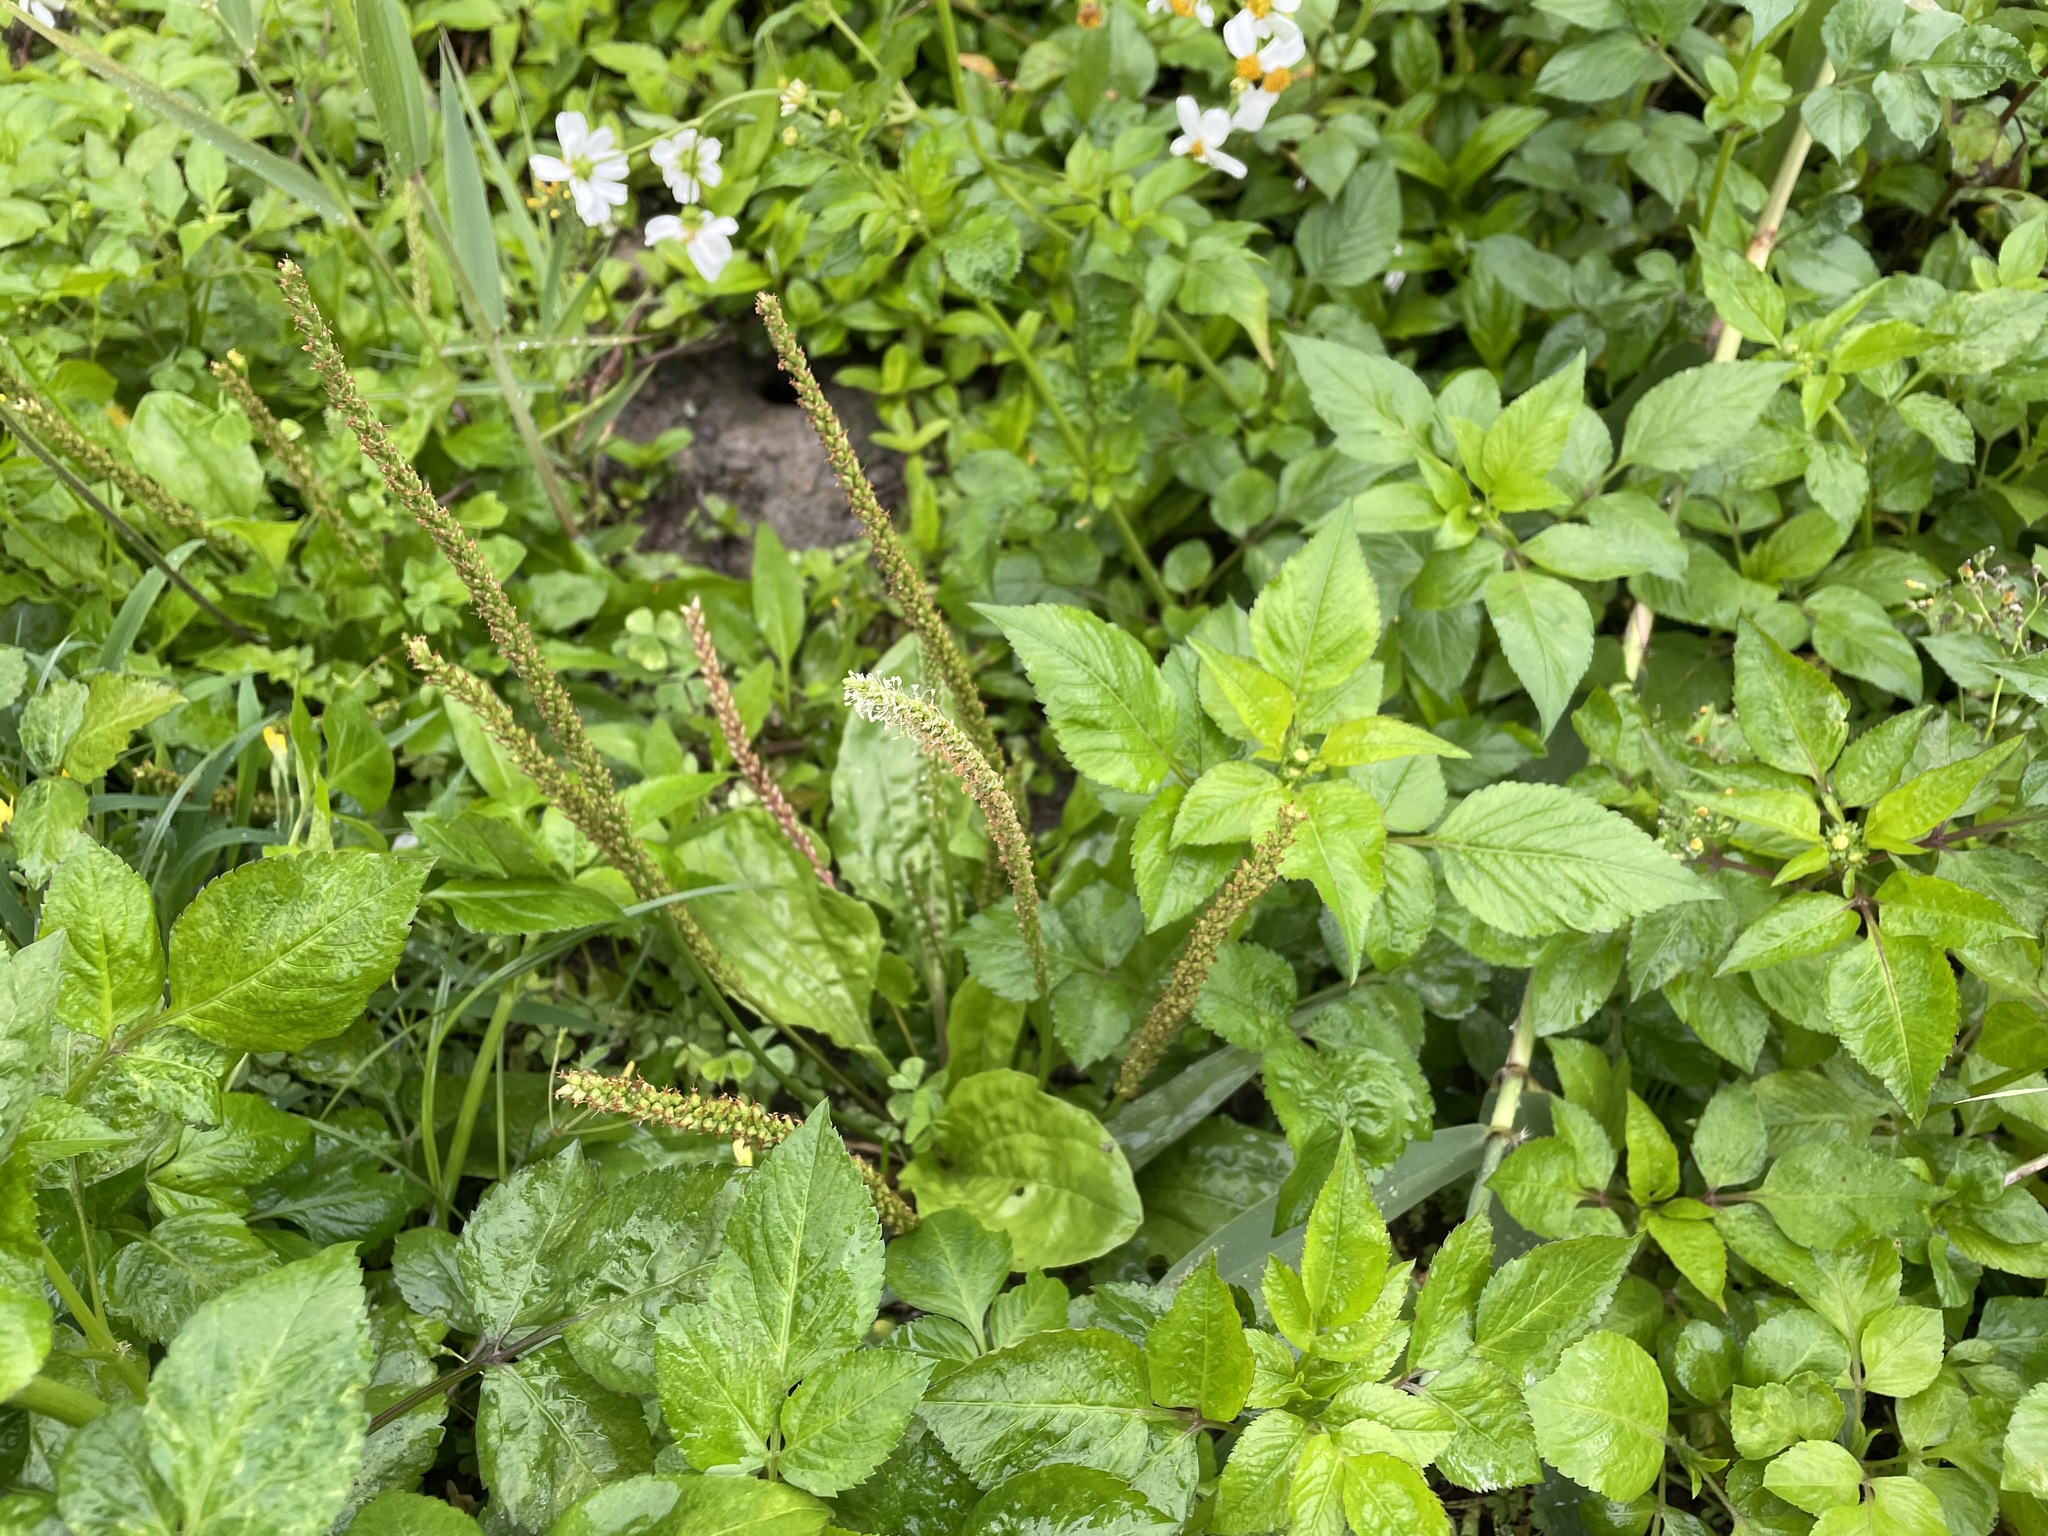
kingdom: Plantae
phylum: Tracheophyta
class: Magnoliopsida
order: Lamiales
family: Plantaginaceae
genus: Plantago
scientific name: Plantago asiatica
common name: Psyllium
